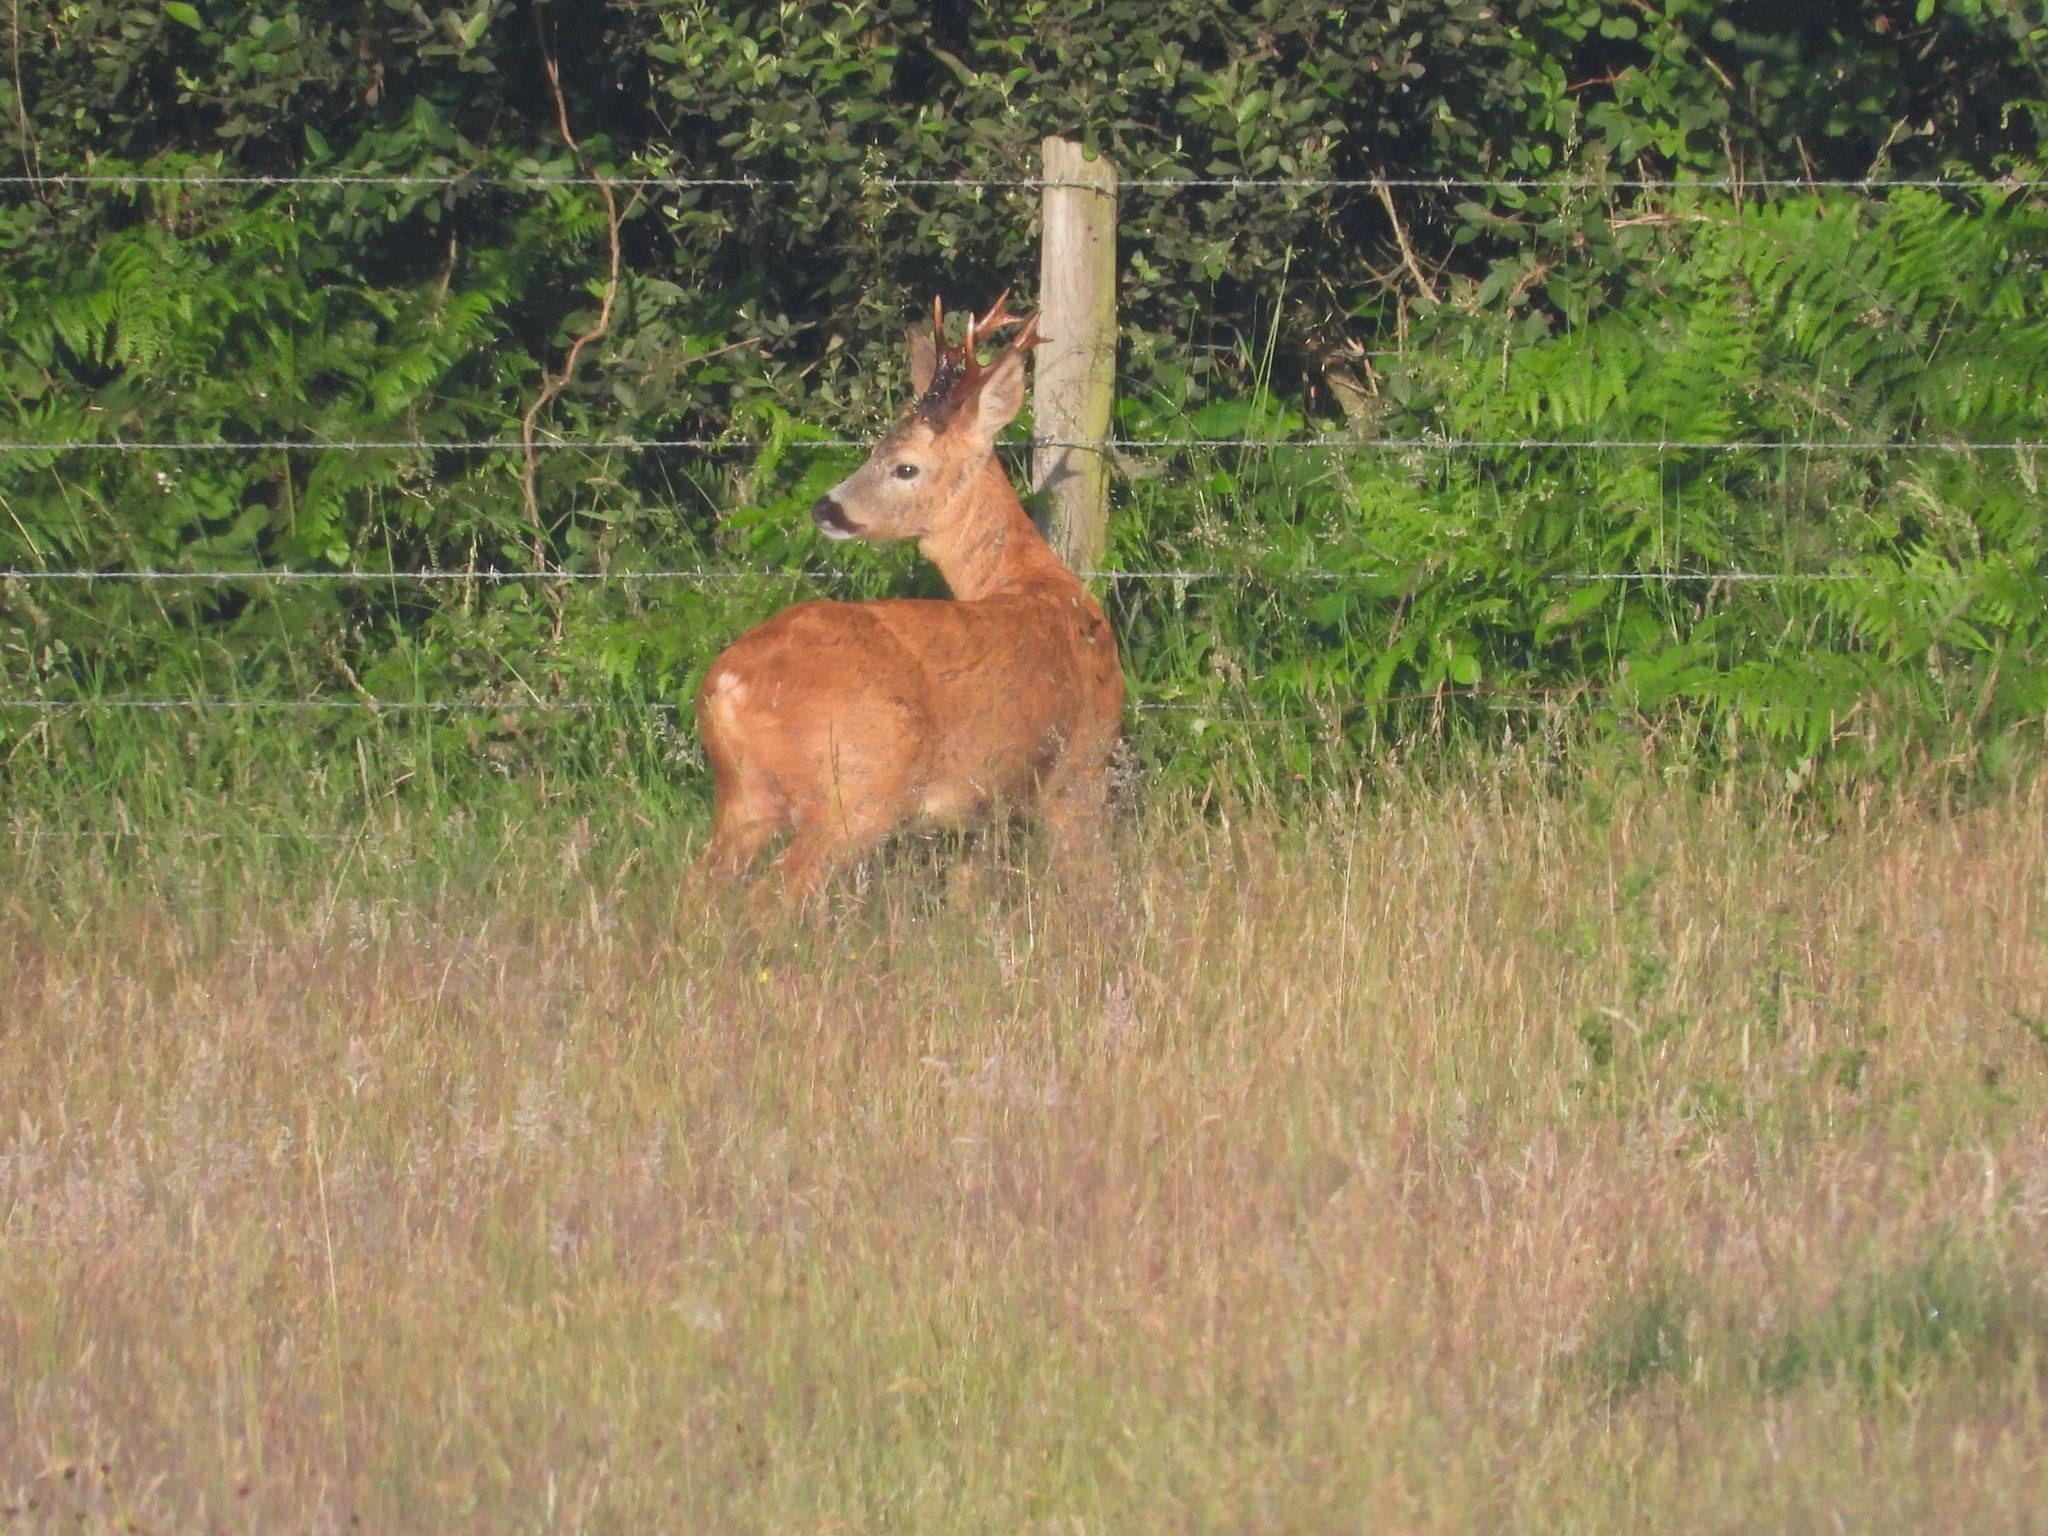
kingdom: Animalia
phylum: Chordata
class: Mammalia
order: Artiodactyla
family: Cervidae
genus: Capreolus
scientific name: Capreolus capreolus
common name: Western roe deer
